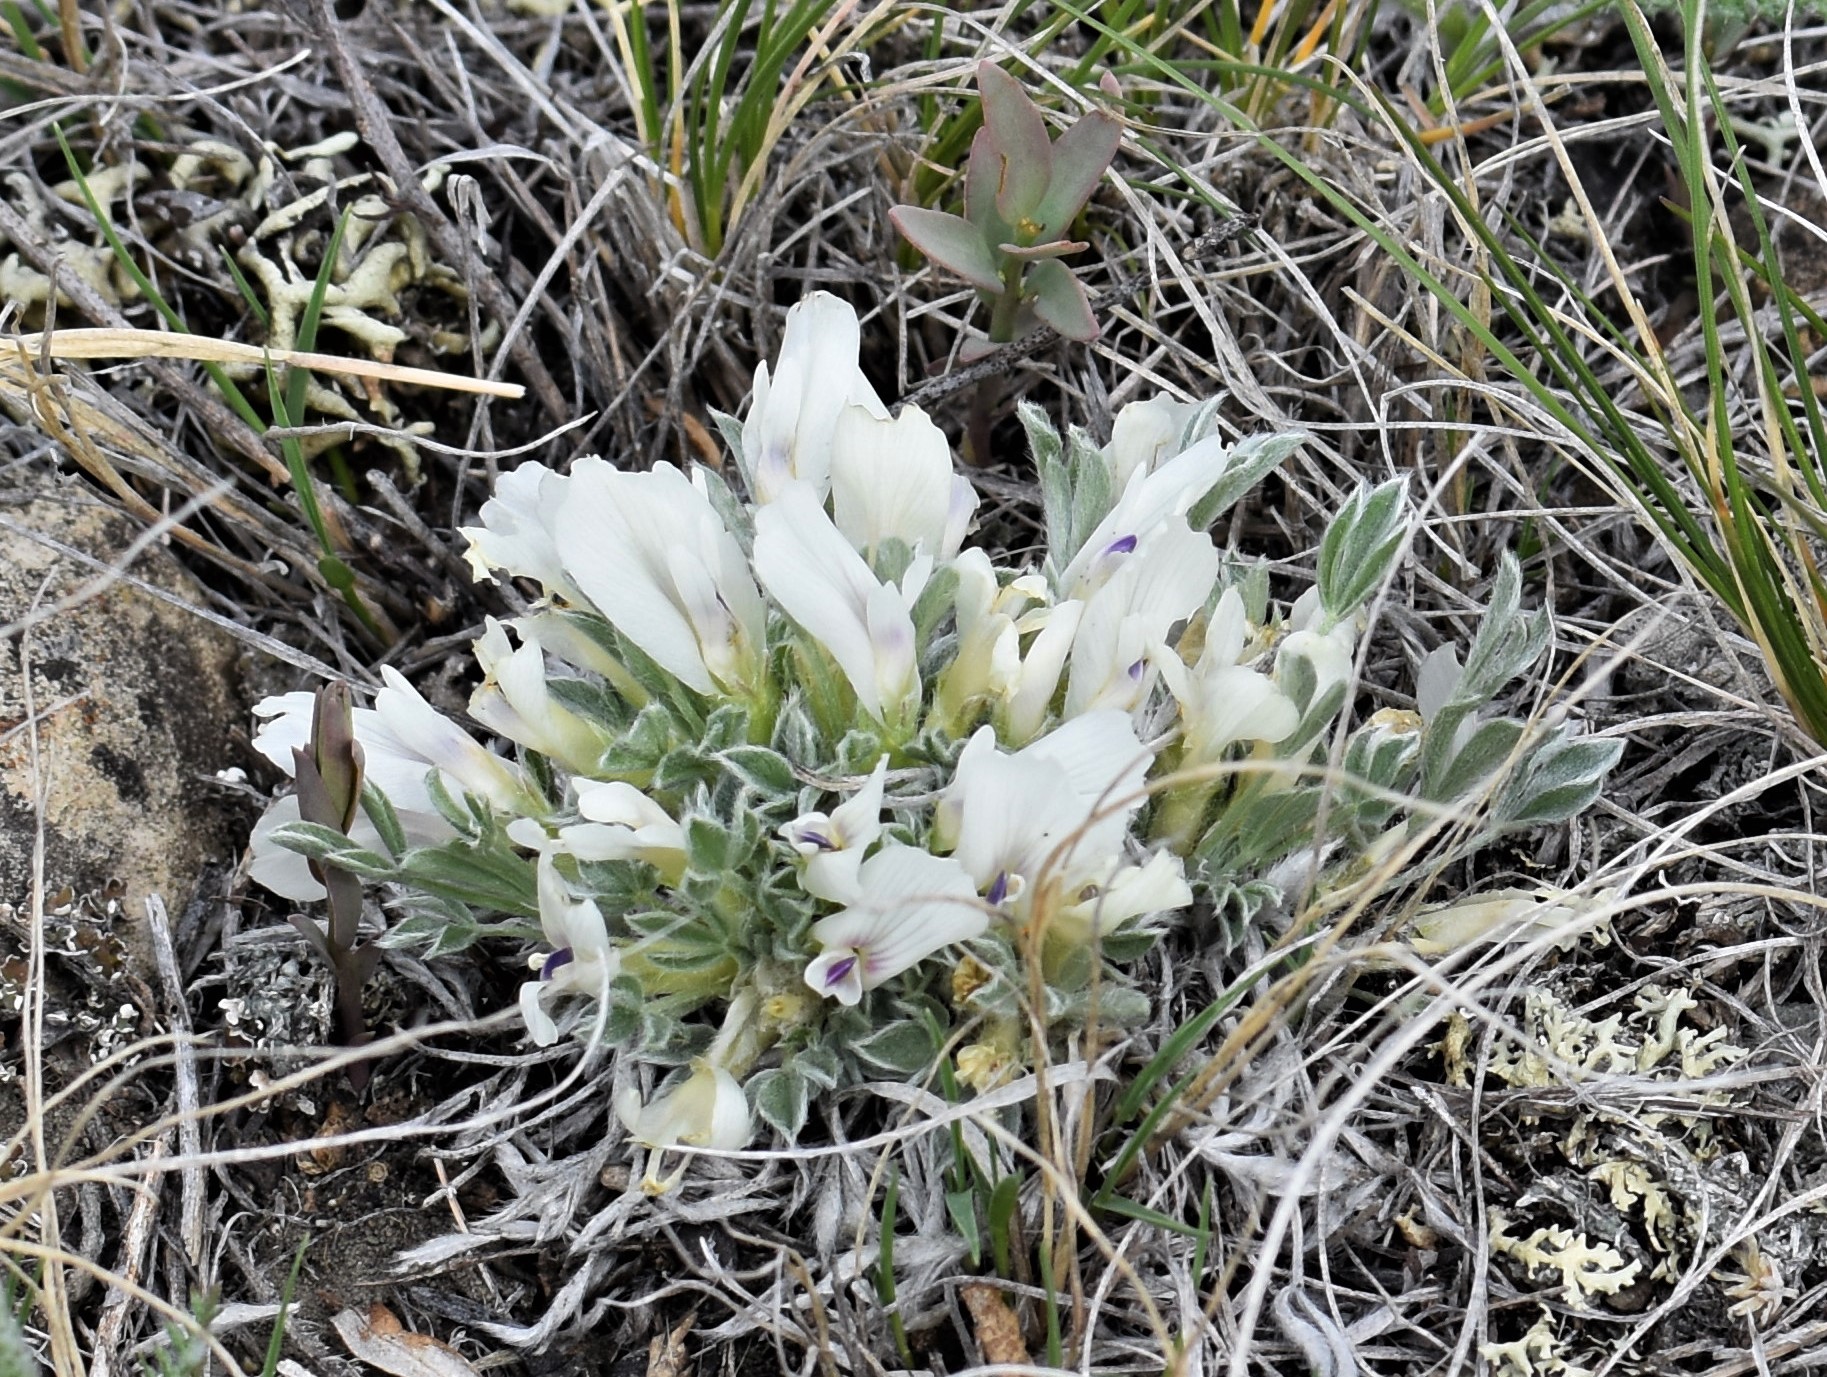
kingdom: Plantae
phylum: Tracheophyta
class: Magnoliopsida
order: Fabales
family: Fabaceae
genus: Astragalus
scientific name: Astragalus gilviflorus
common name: Cushion milk-vetch
